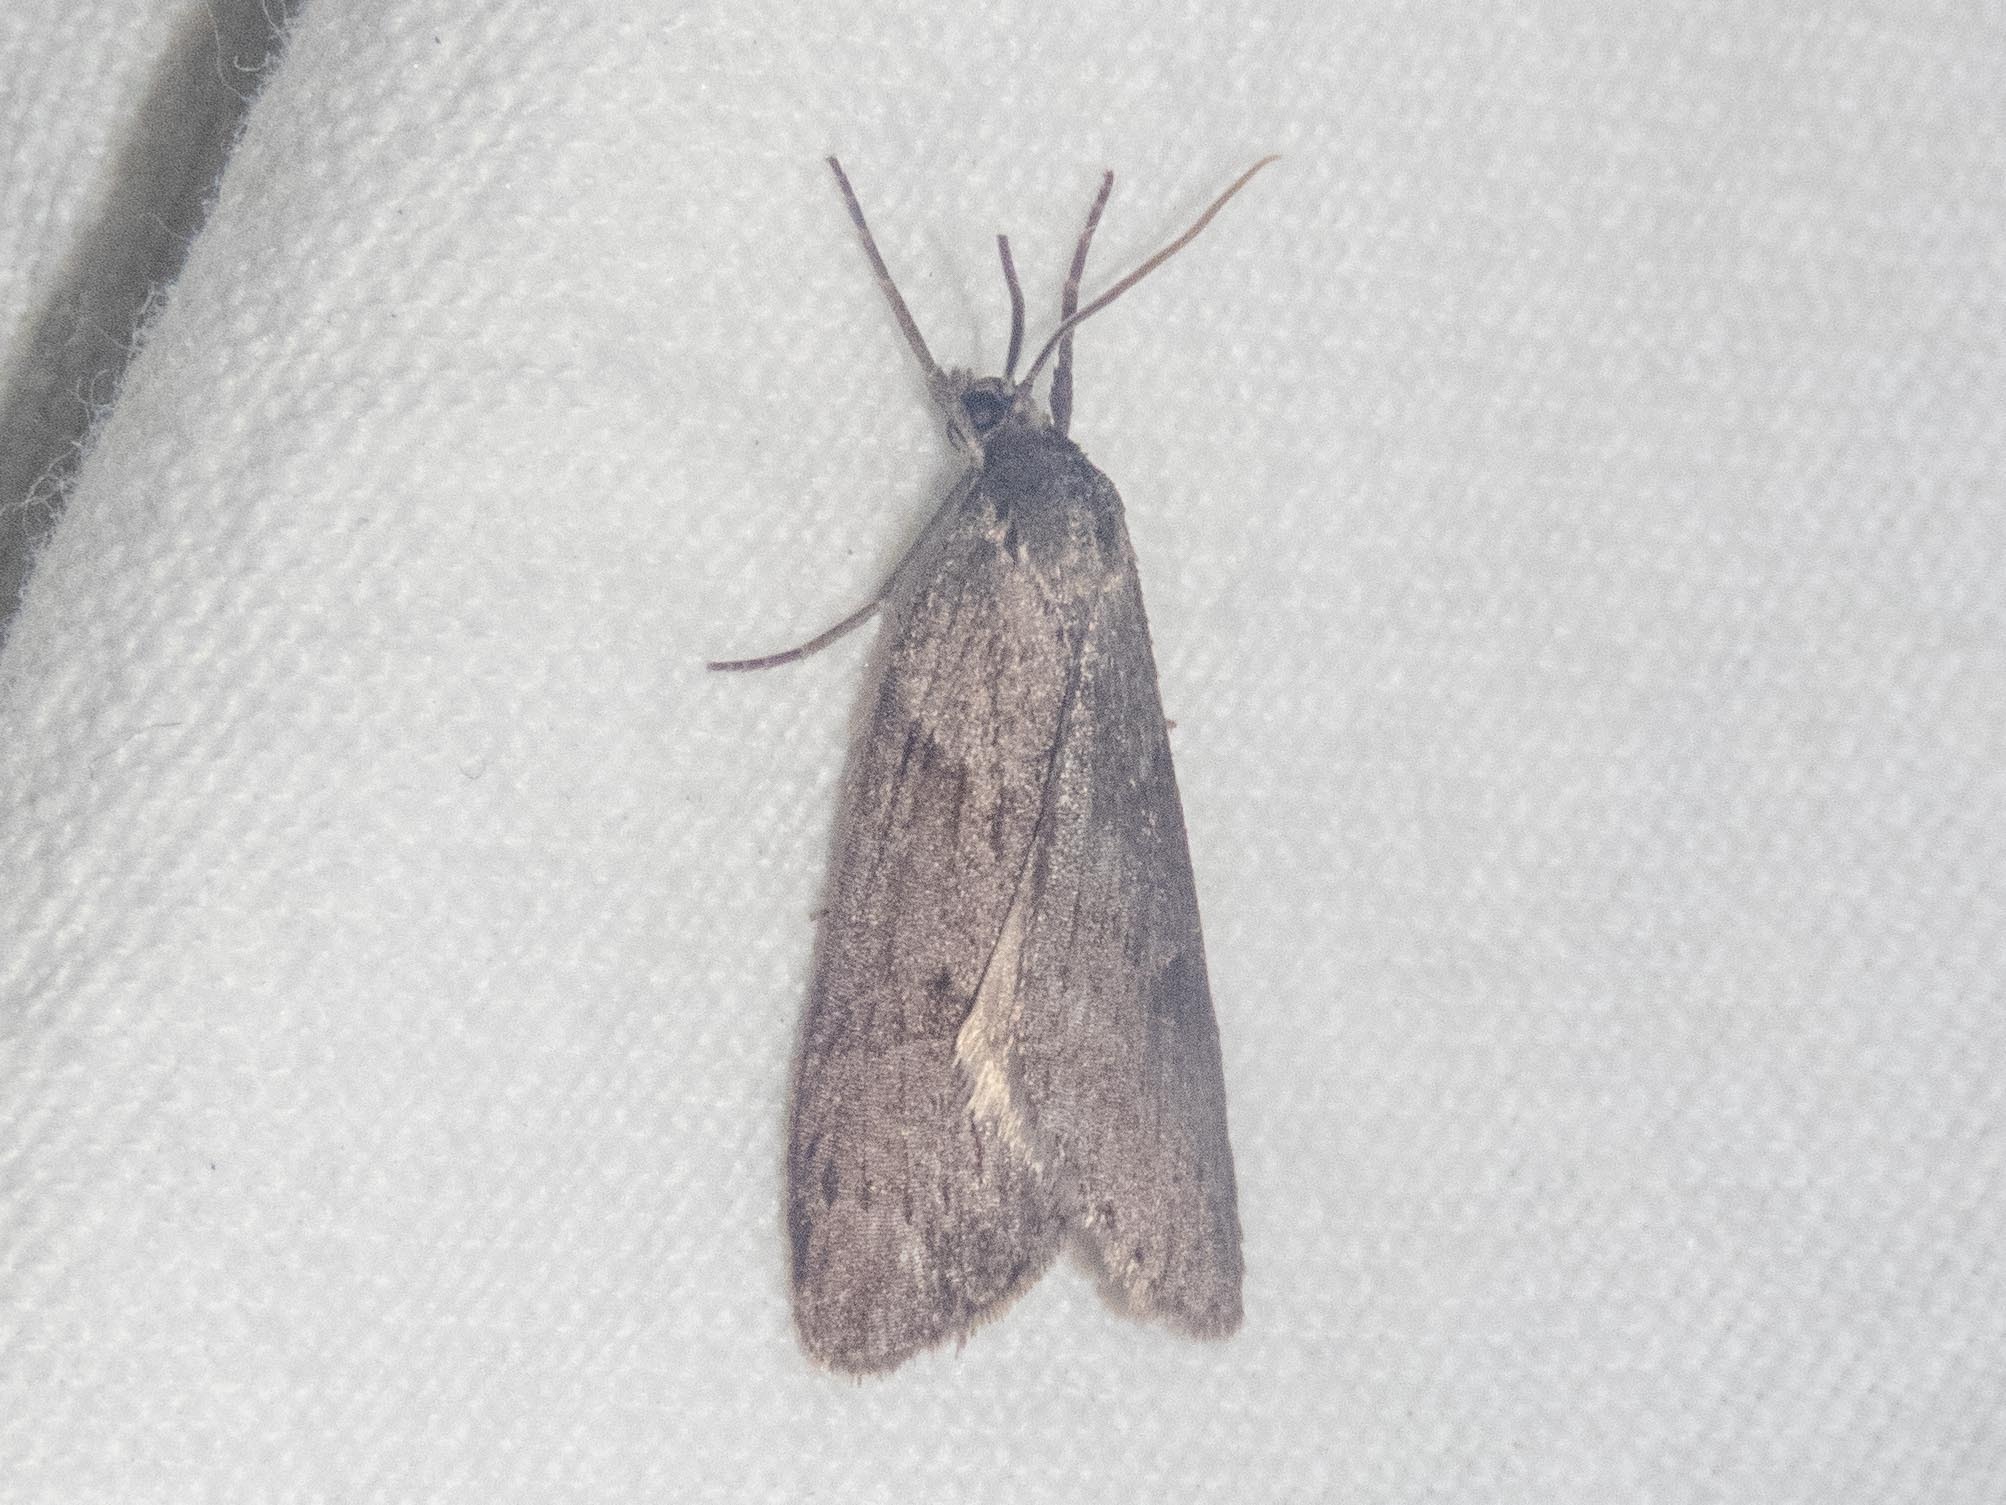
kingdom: Animalia
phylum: Arthropoda
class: Insecta
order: Lepidoptera
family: Geometridae
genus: Pachycnemia
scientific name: Pachycnemia hippocastanaria
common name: Horse chestnut
